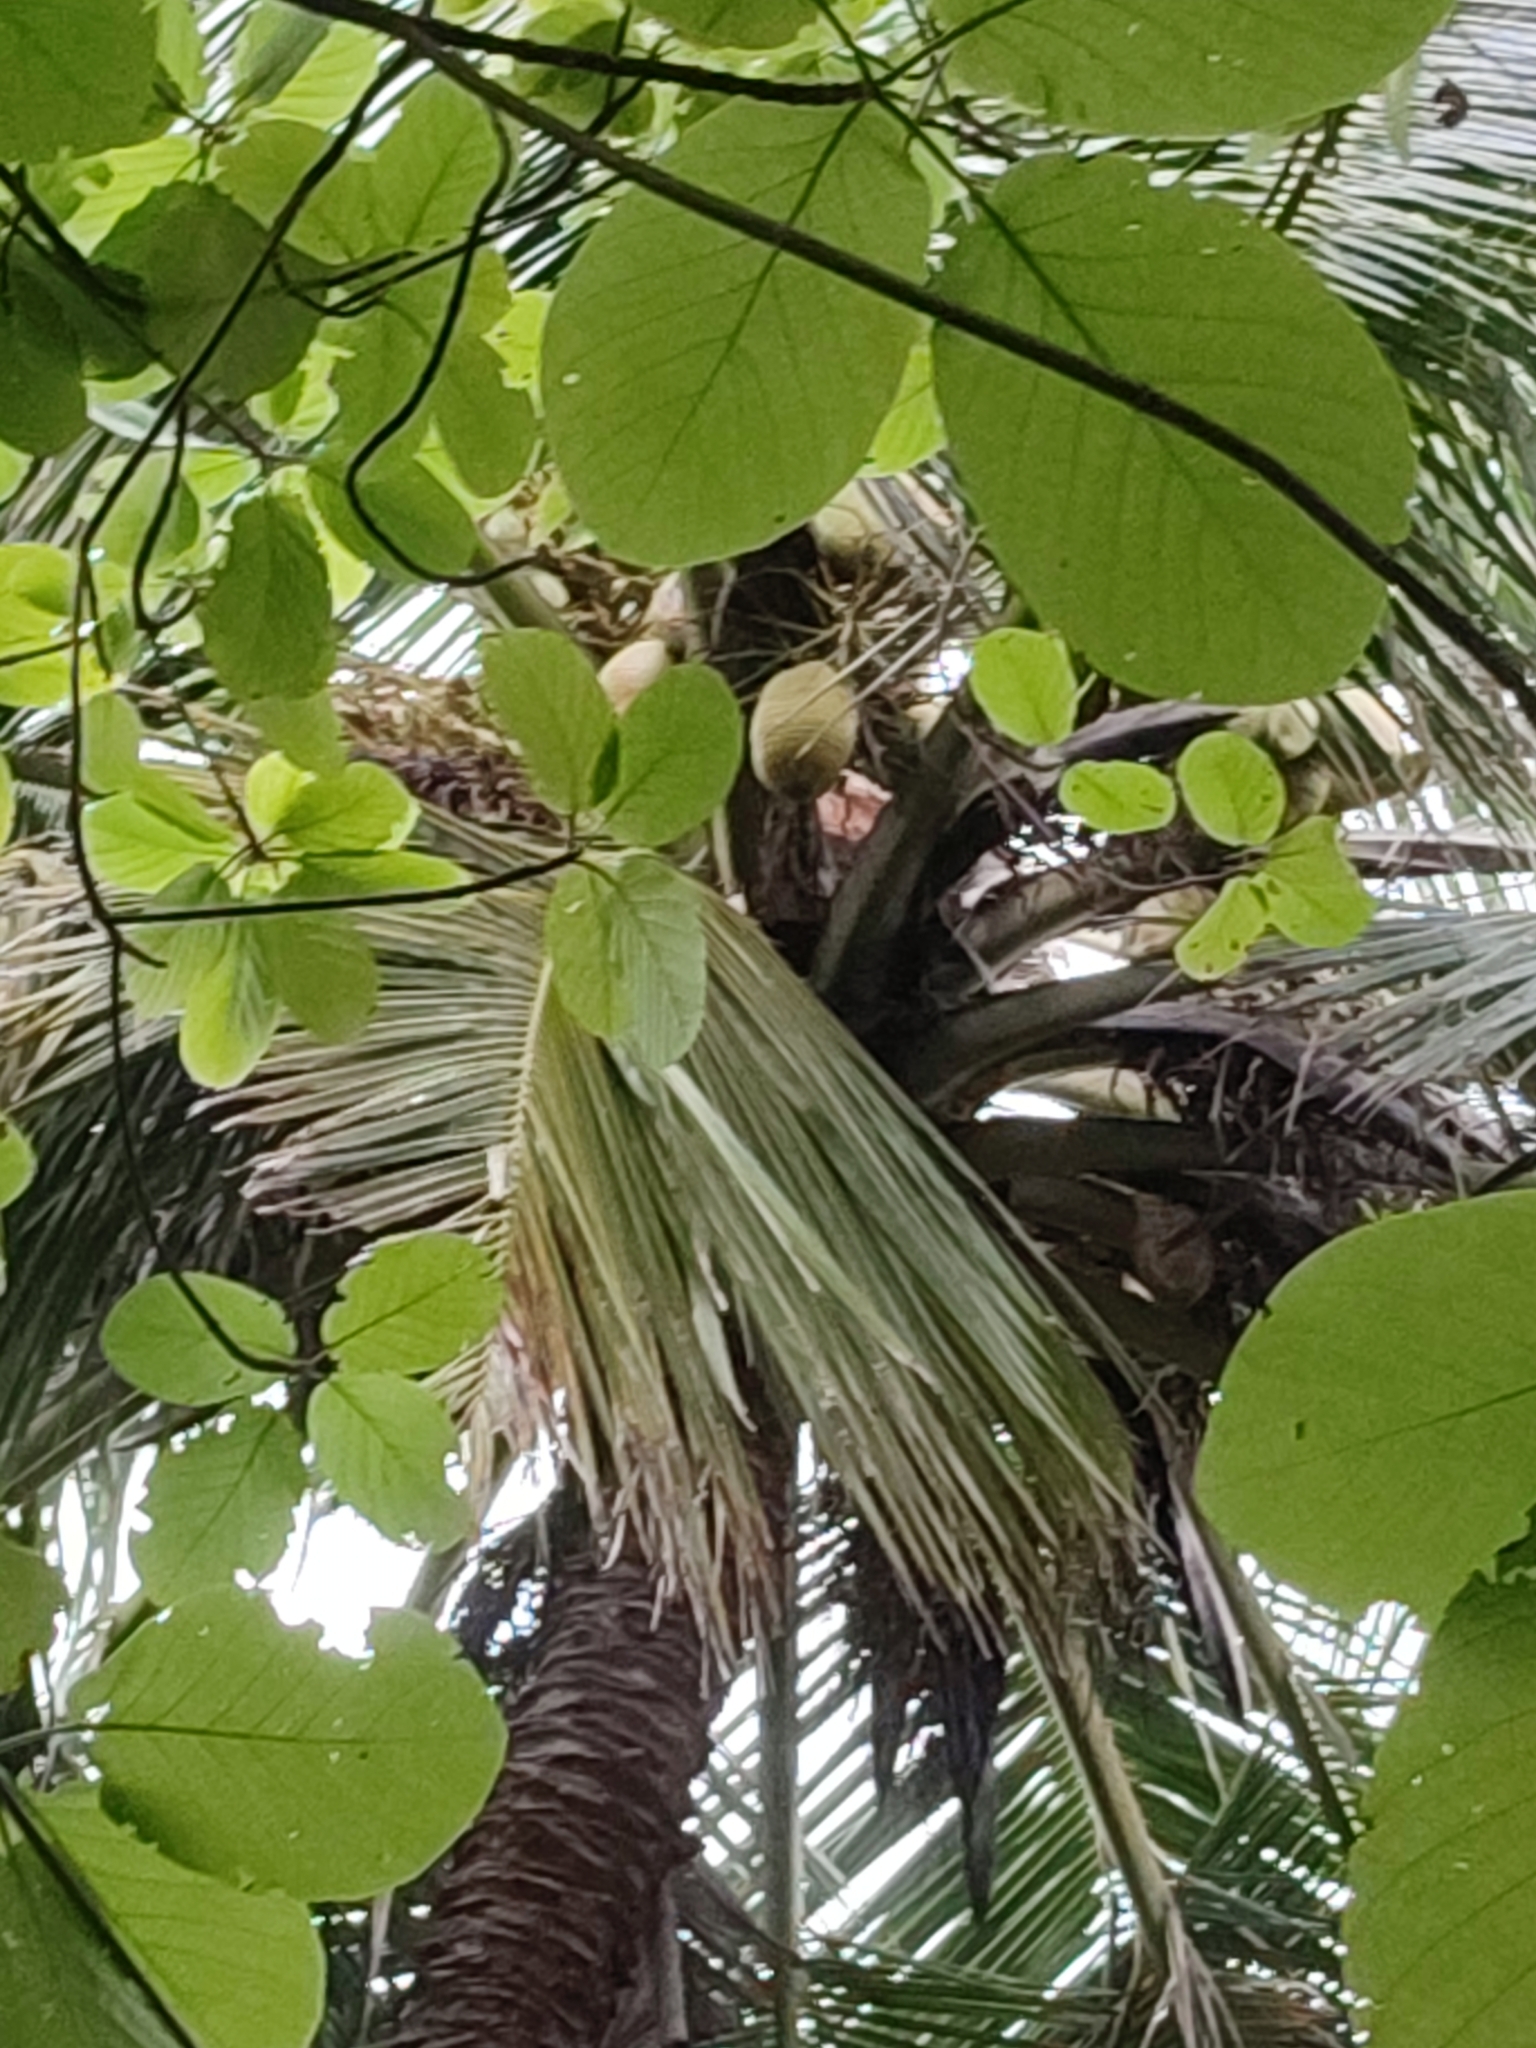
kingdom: Plantae
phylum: Tracheophyta
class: Liliopsida
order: Arecales
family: Arecaceae
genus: Cocos
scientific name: Cocos nucifera
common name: Coconut palm
